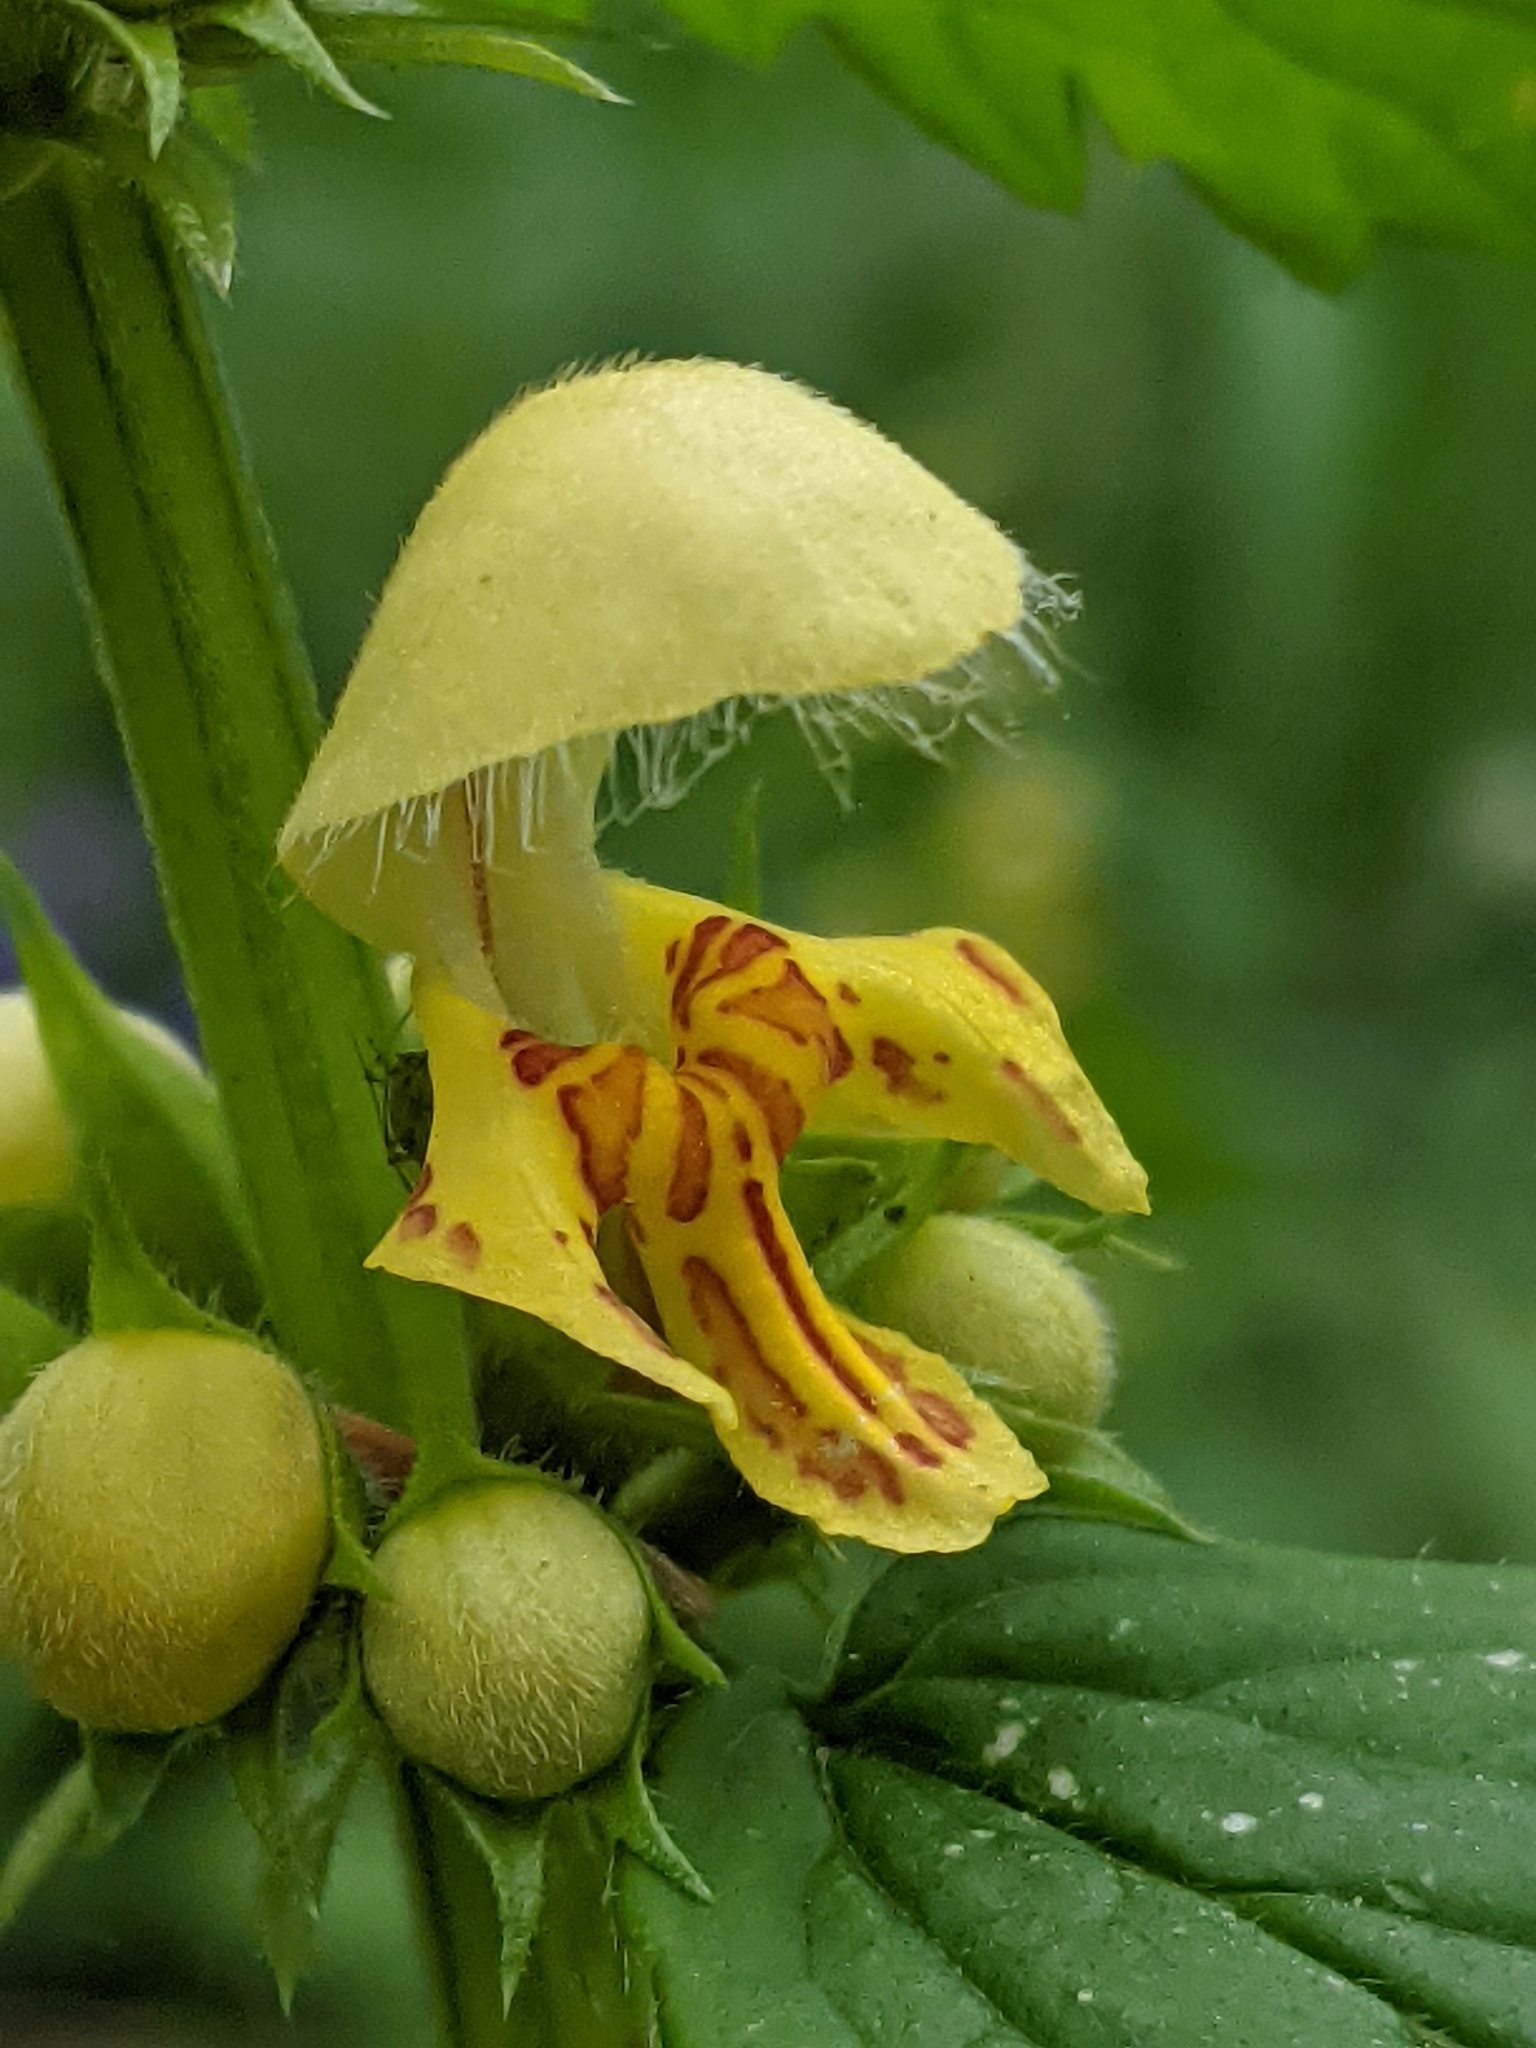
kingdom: Plantae
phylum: Tracheophyta
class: Magnoliopsida
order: Lamiales
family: Lamiaceae
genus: Lamium
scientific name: Lamium galeobdolon
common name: Yellow archangel
